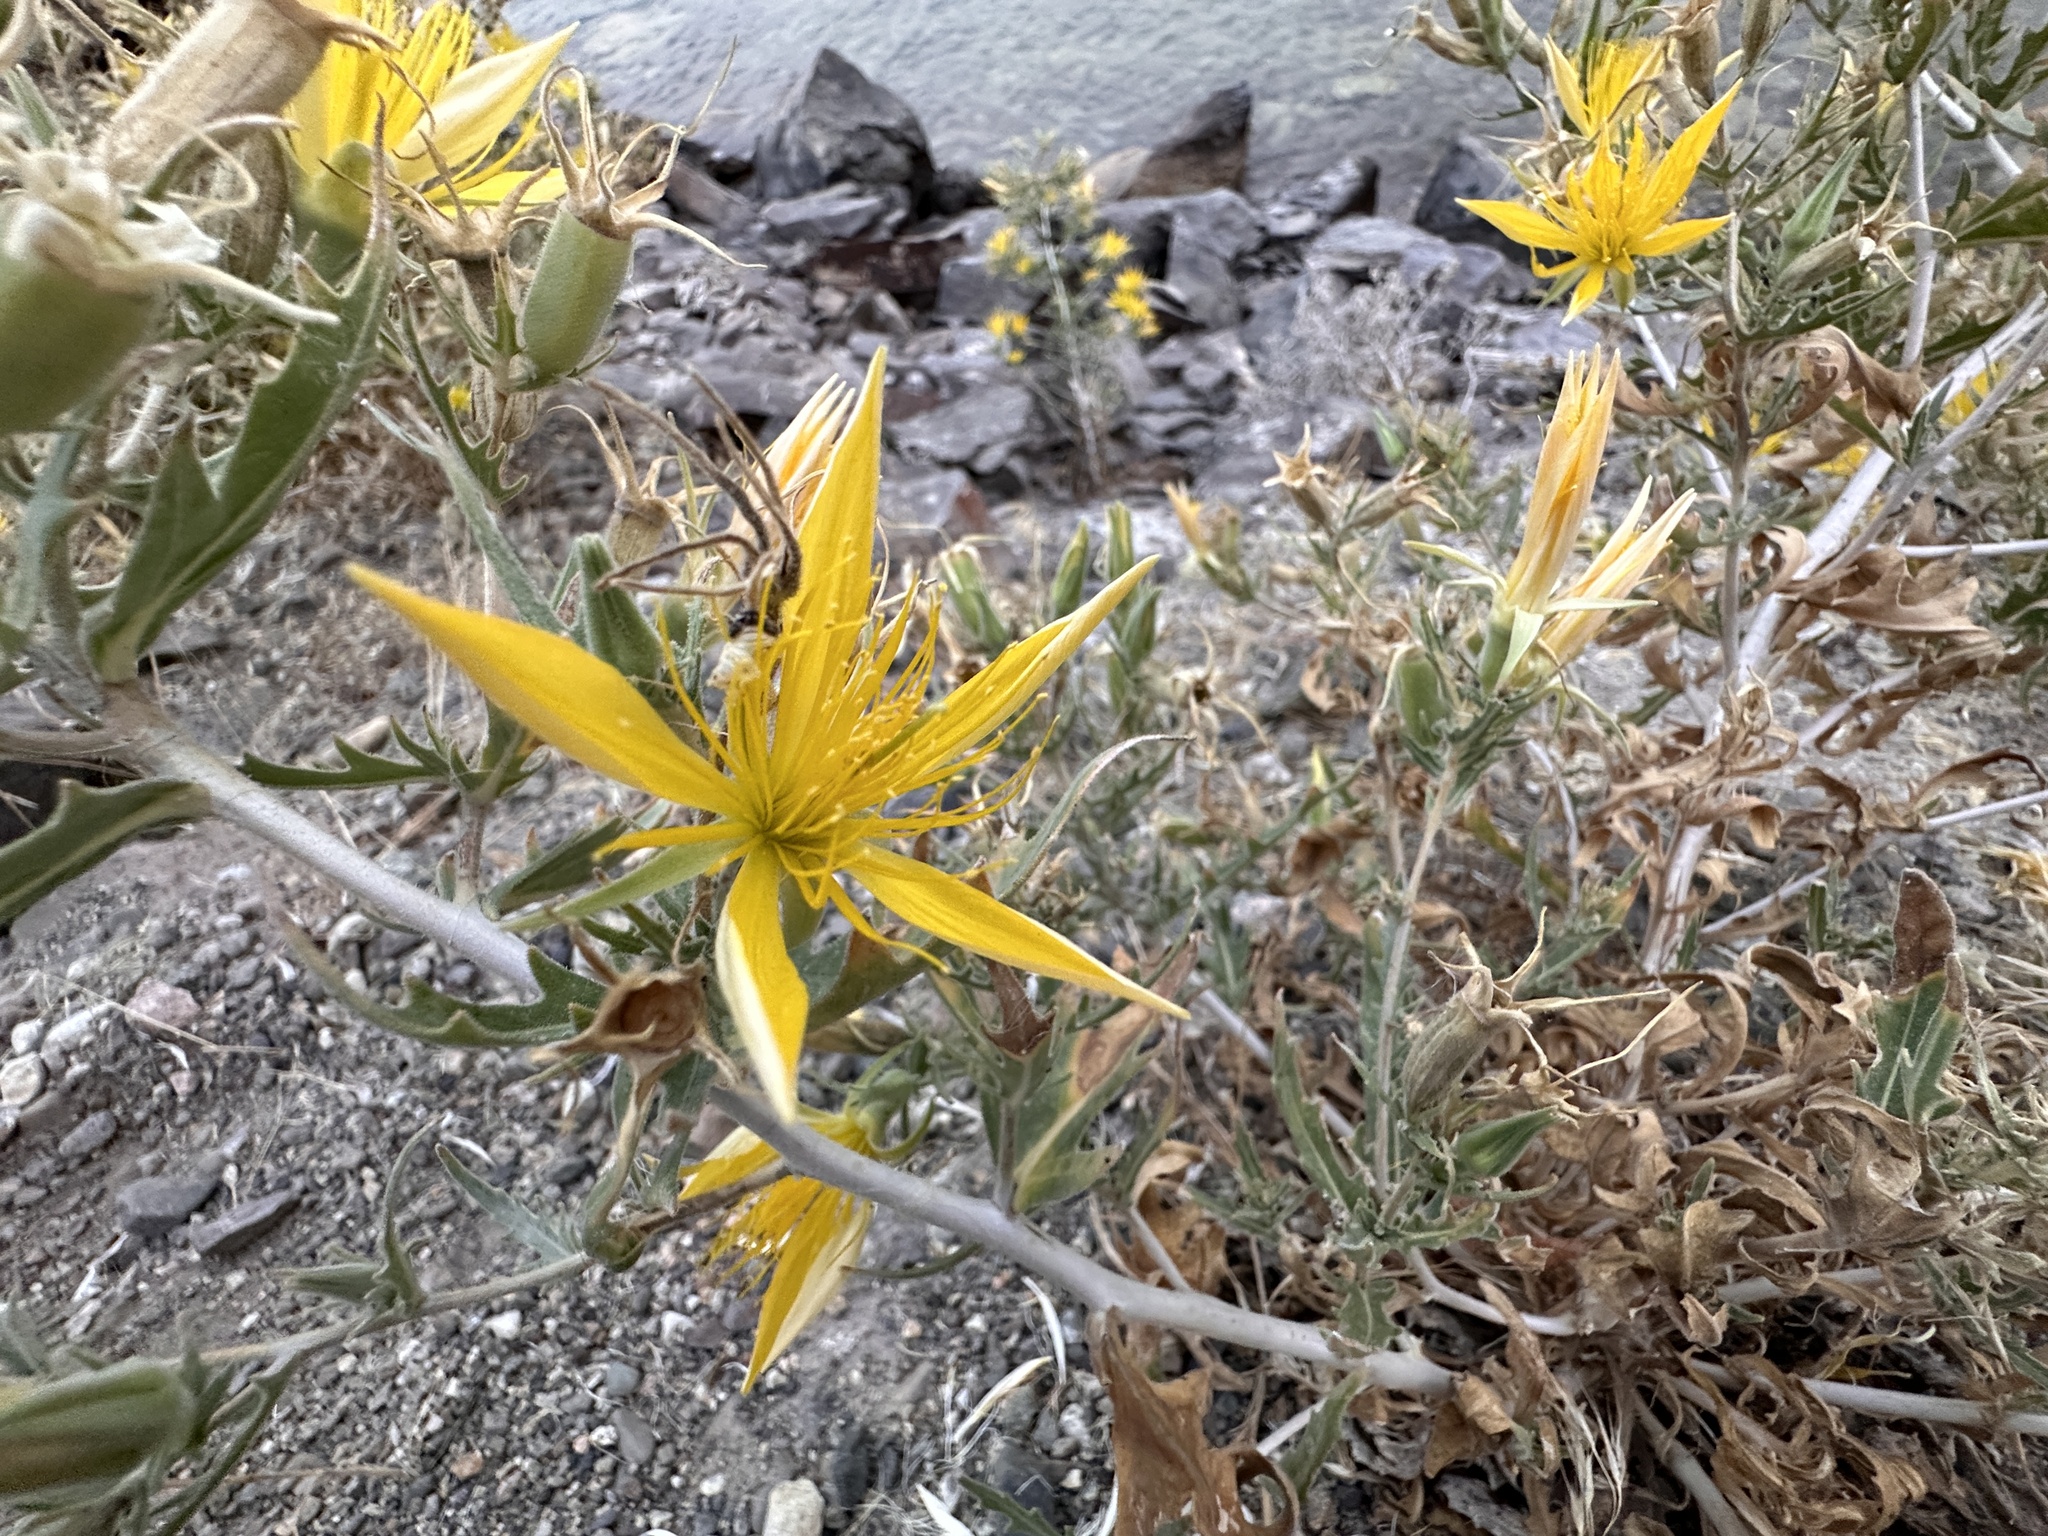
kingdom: Plantae
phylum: Tracheophyta
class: Magnoliopsida
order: Cornales
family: Loasaceae
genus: Mentzelia
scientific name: Mentzelia laevicaulis
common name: Smooth-stem blazingstar
